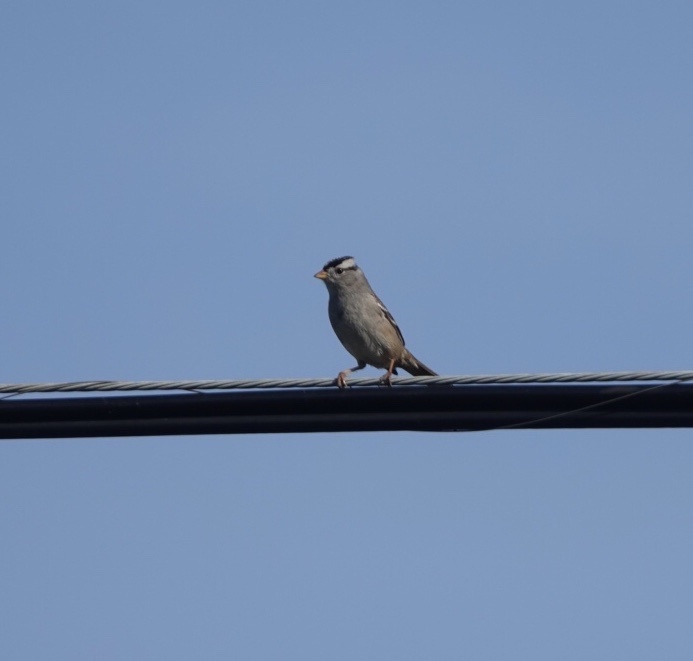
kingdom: Animalia
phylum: Chordata
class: Aves
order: Passeriformes
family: Passerellidae
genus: Zonotrichia
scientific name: Zonotrichia leucophrys
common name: White-crowned sparrow
